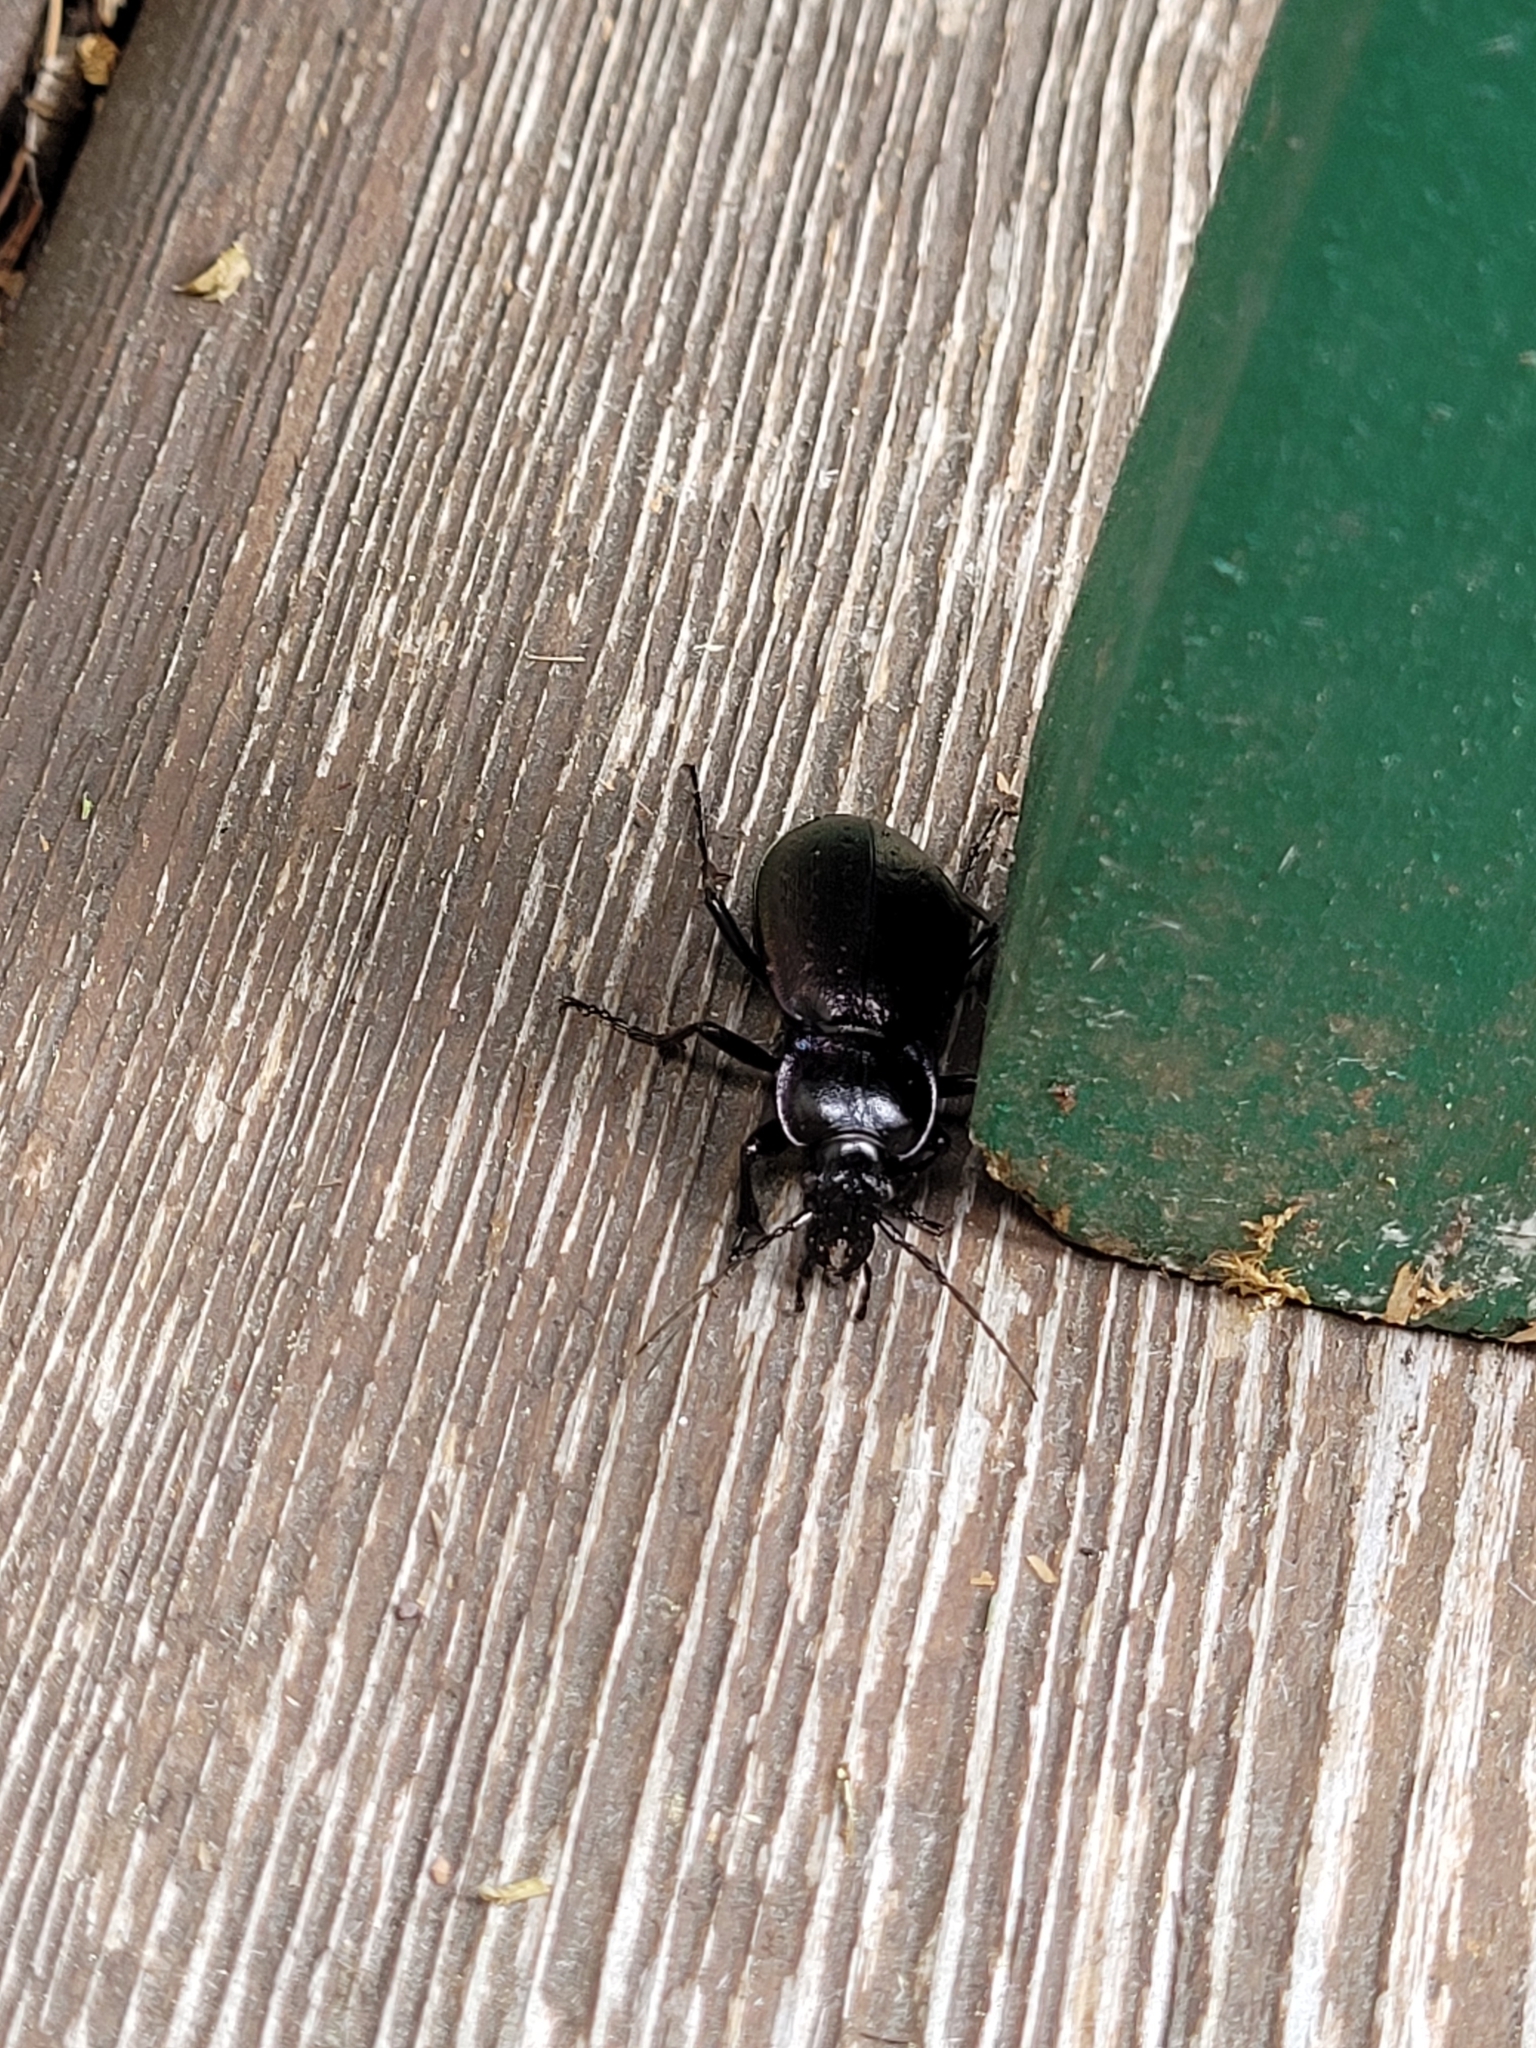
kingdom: Animalia
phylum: Arthropoda
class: Insecta
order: Coleoptera
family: Carabidae
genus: Carabus
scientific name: Carabus nemoralis
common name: European ground beetle
